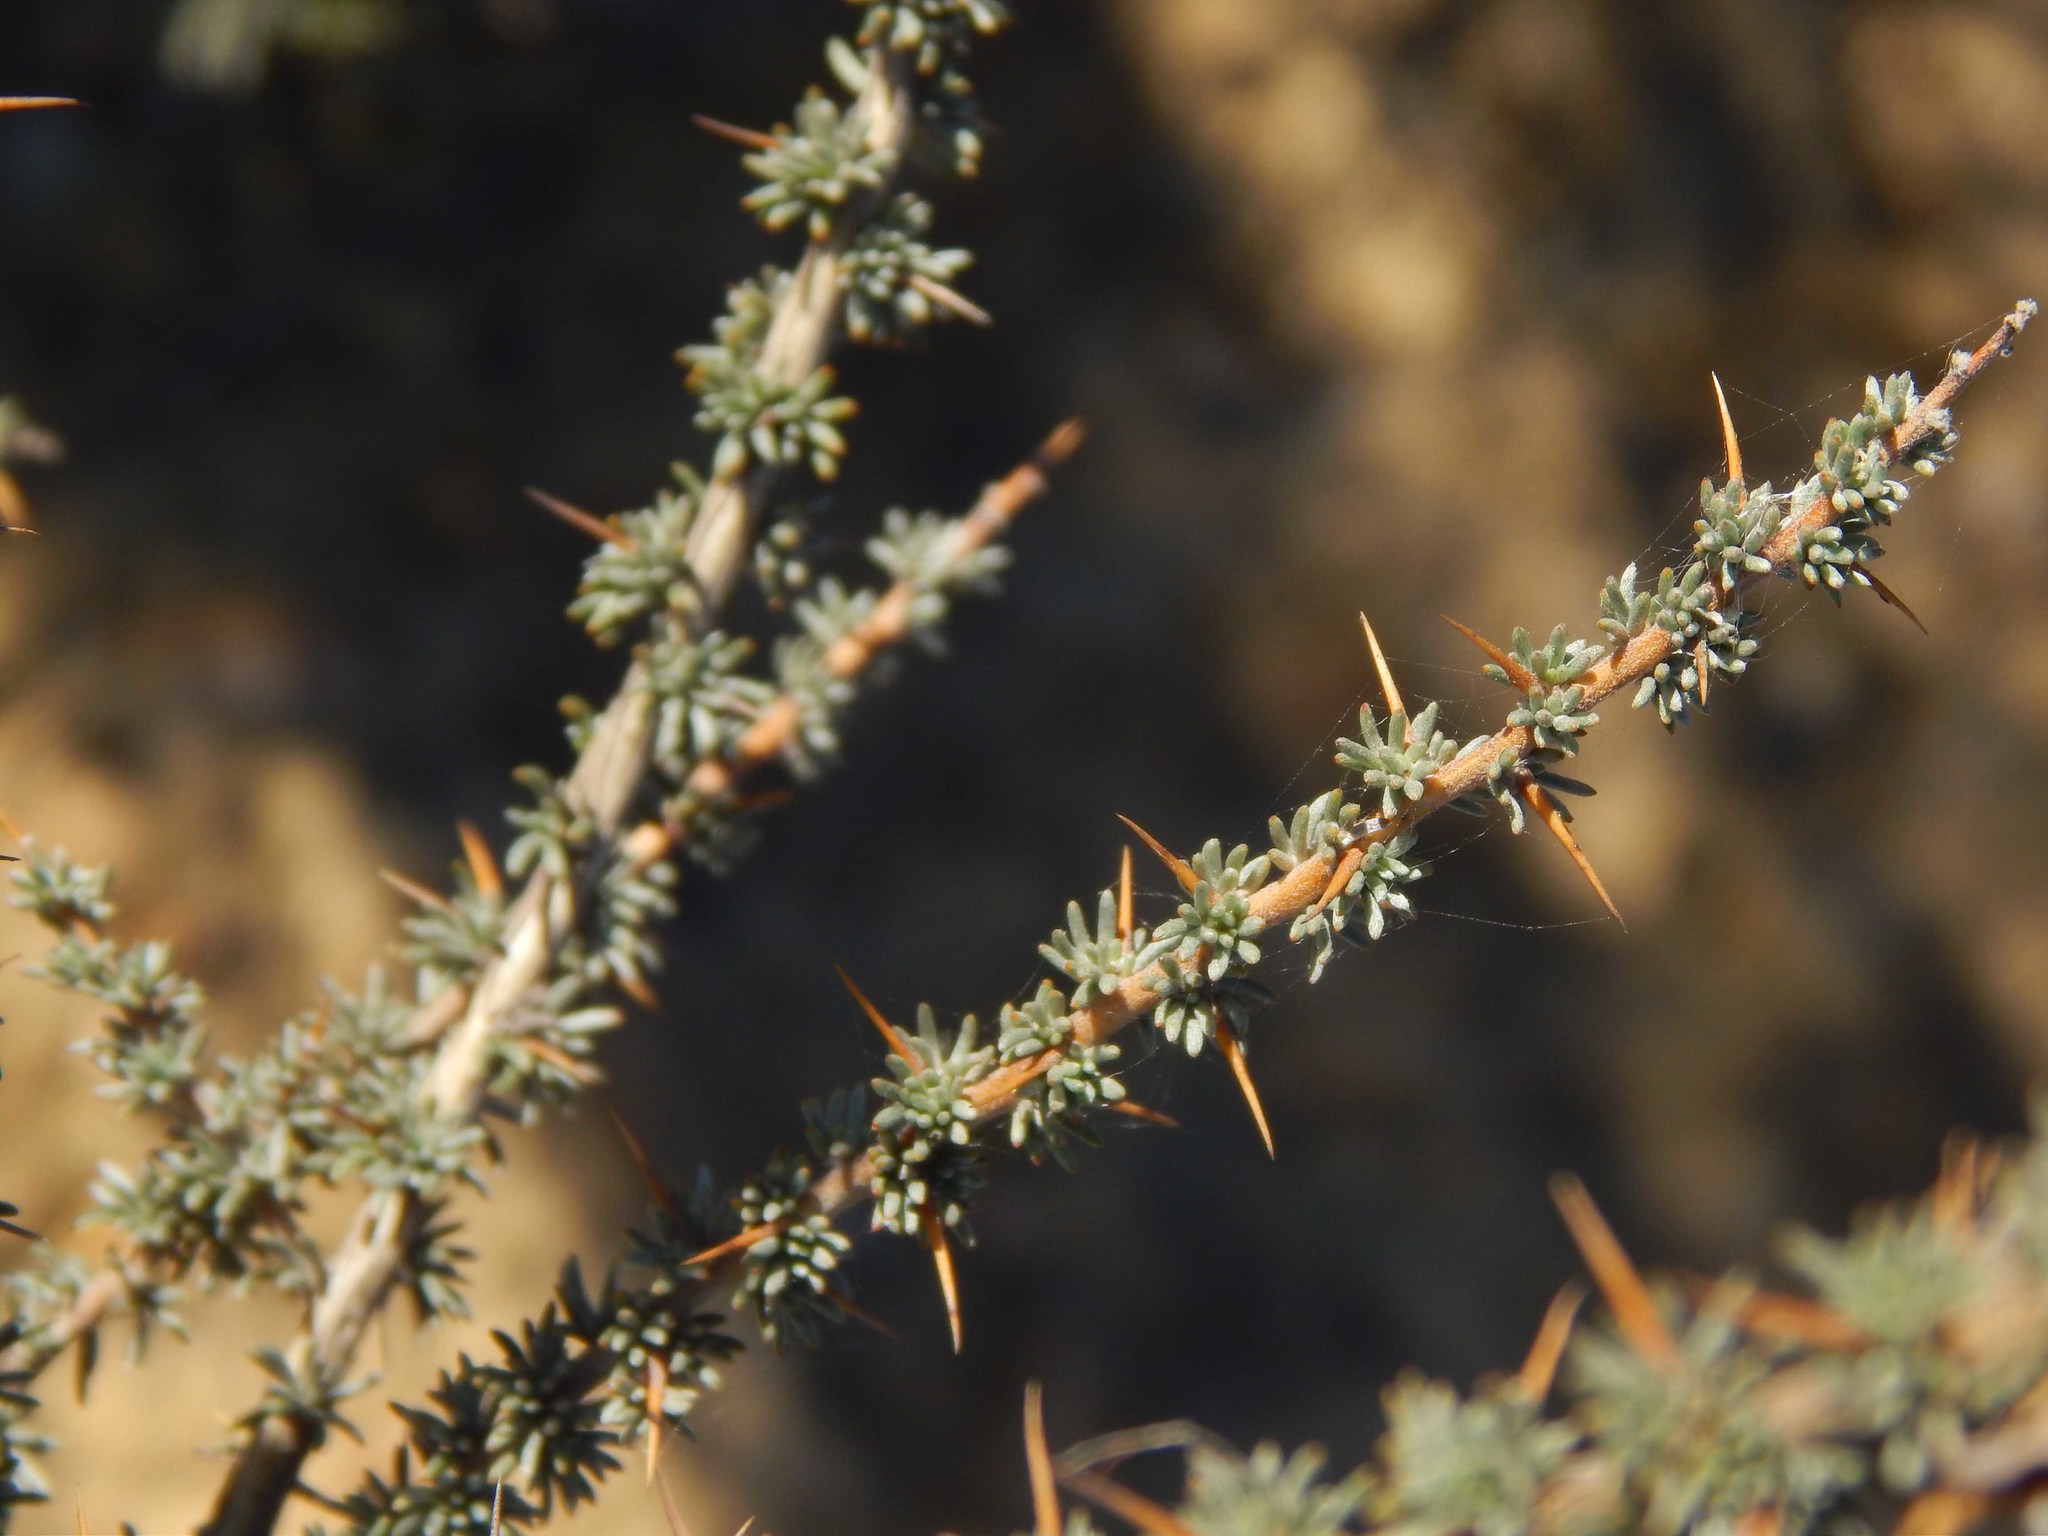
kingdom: Plantae
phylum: Tracheophyta
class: Magnoliopsida
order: Fabales
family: Fabaceae
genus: Aspalathus
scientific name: Aspalathus acanthophylla
